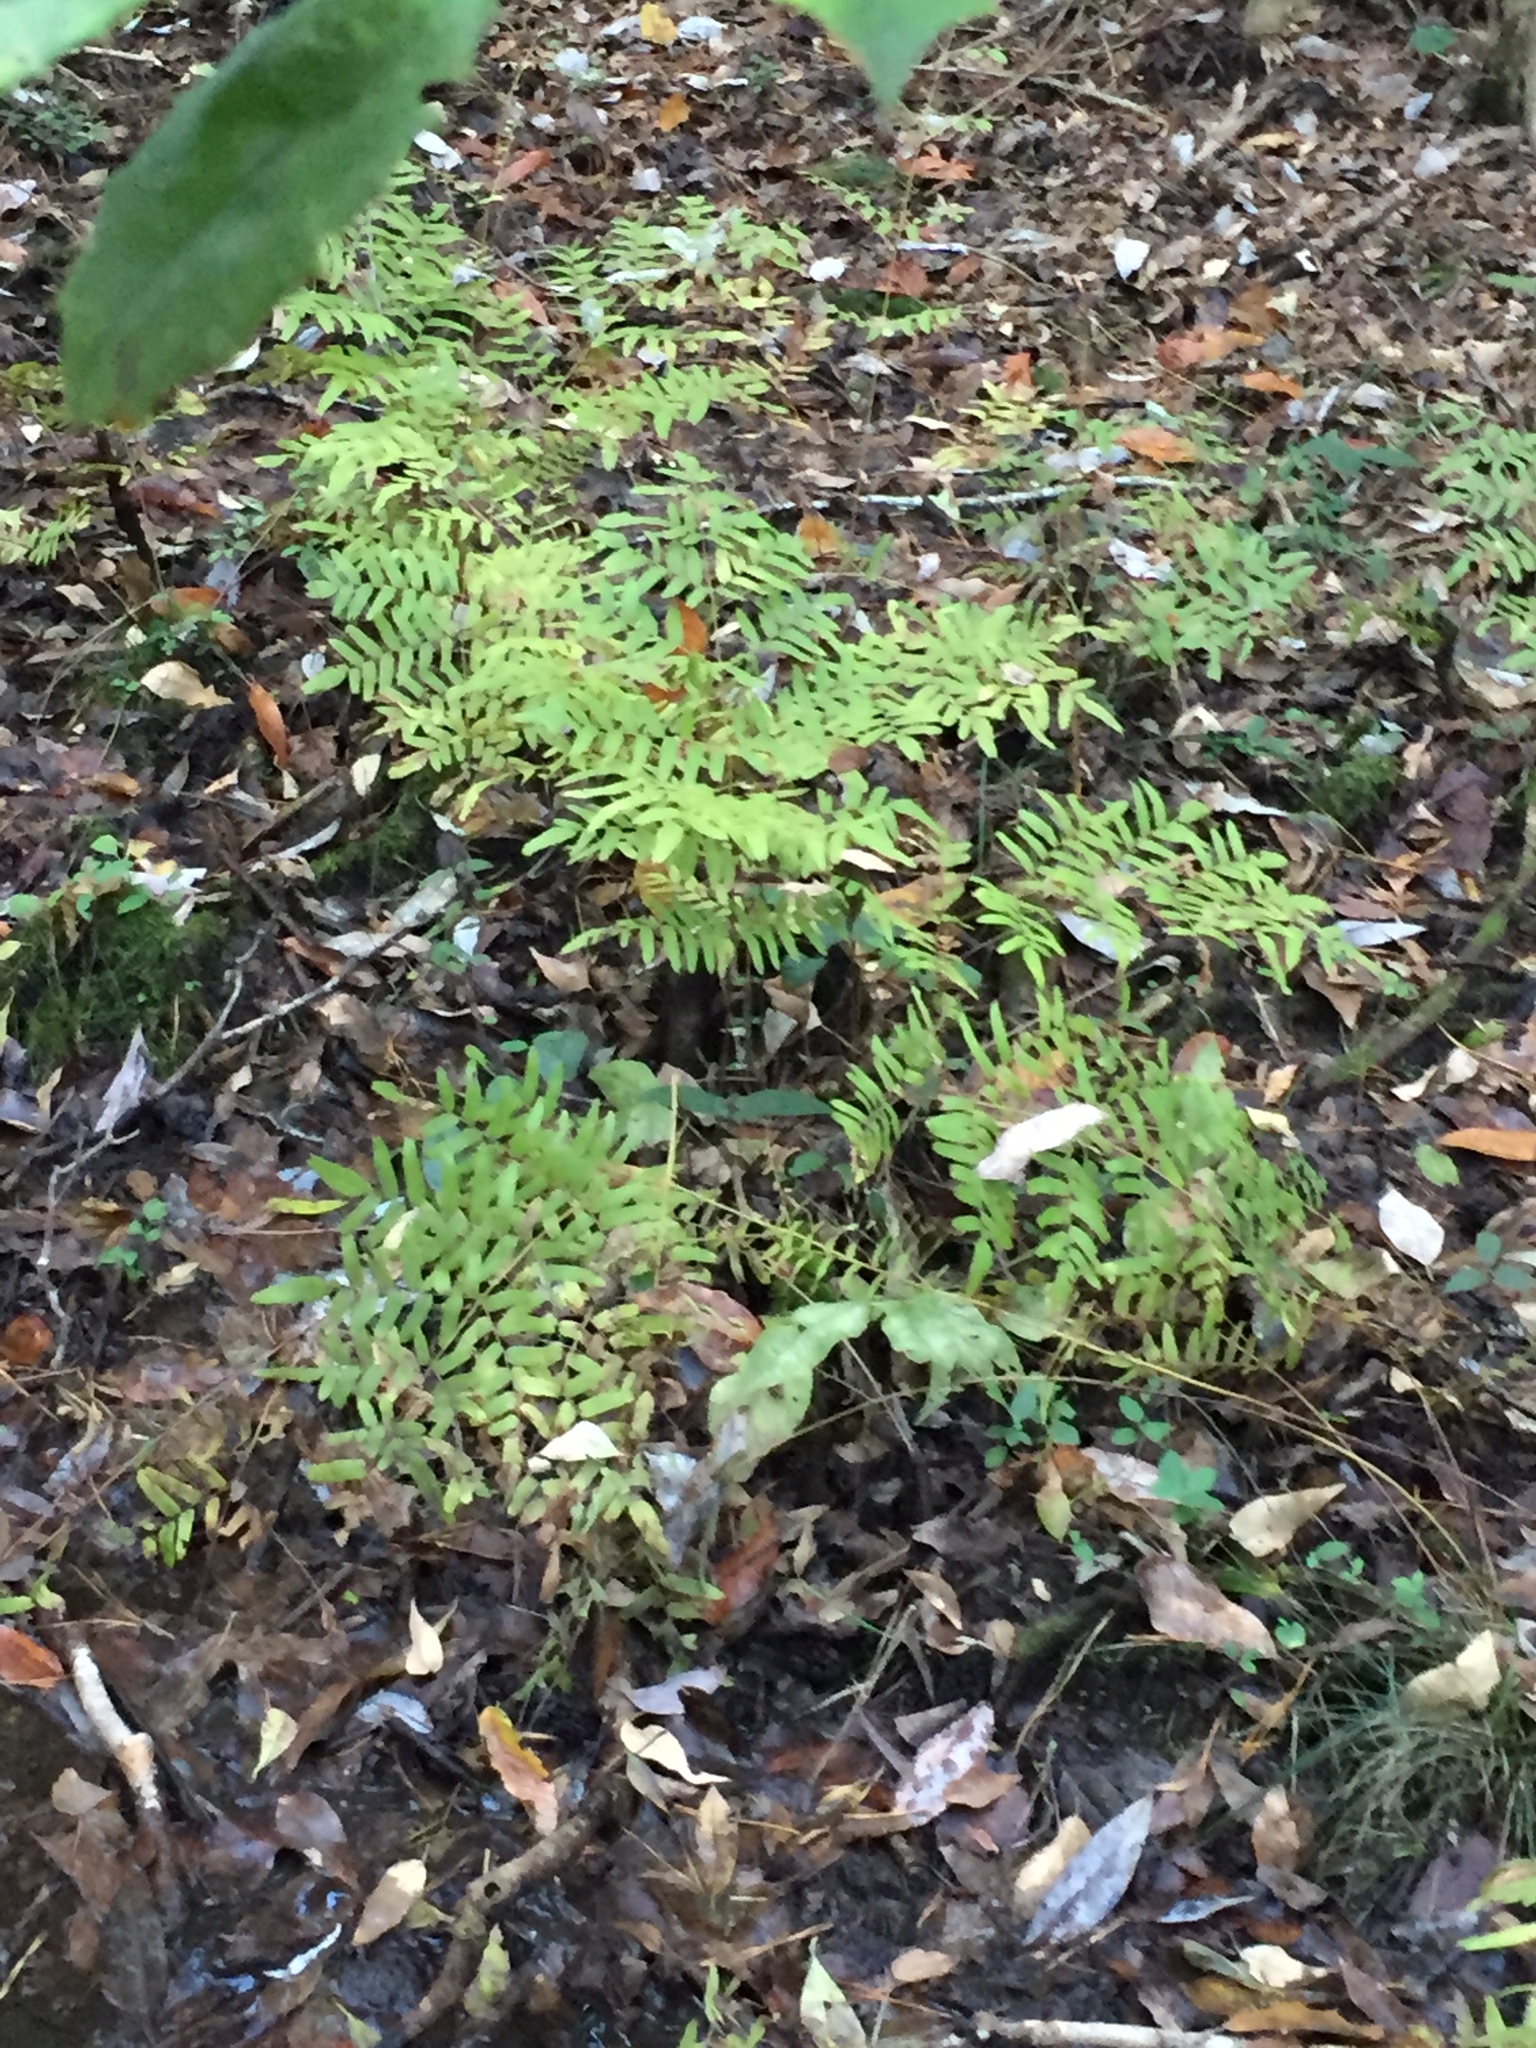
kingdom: Plantae
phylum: Tracheophyta
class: Polypodiopsida
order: Osmundales
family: Osmundaceae
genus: Osmunda
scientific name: Osmunda spectabilis
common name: American royal fern
